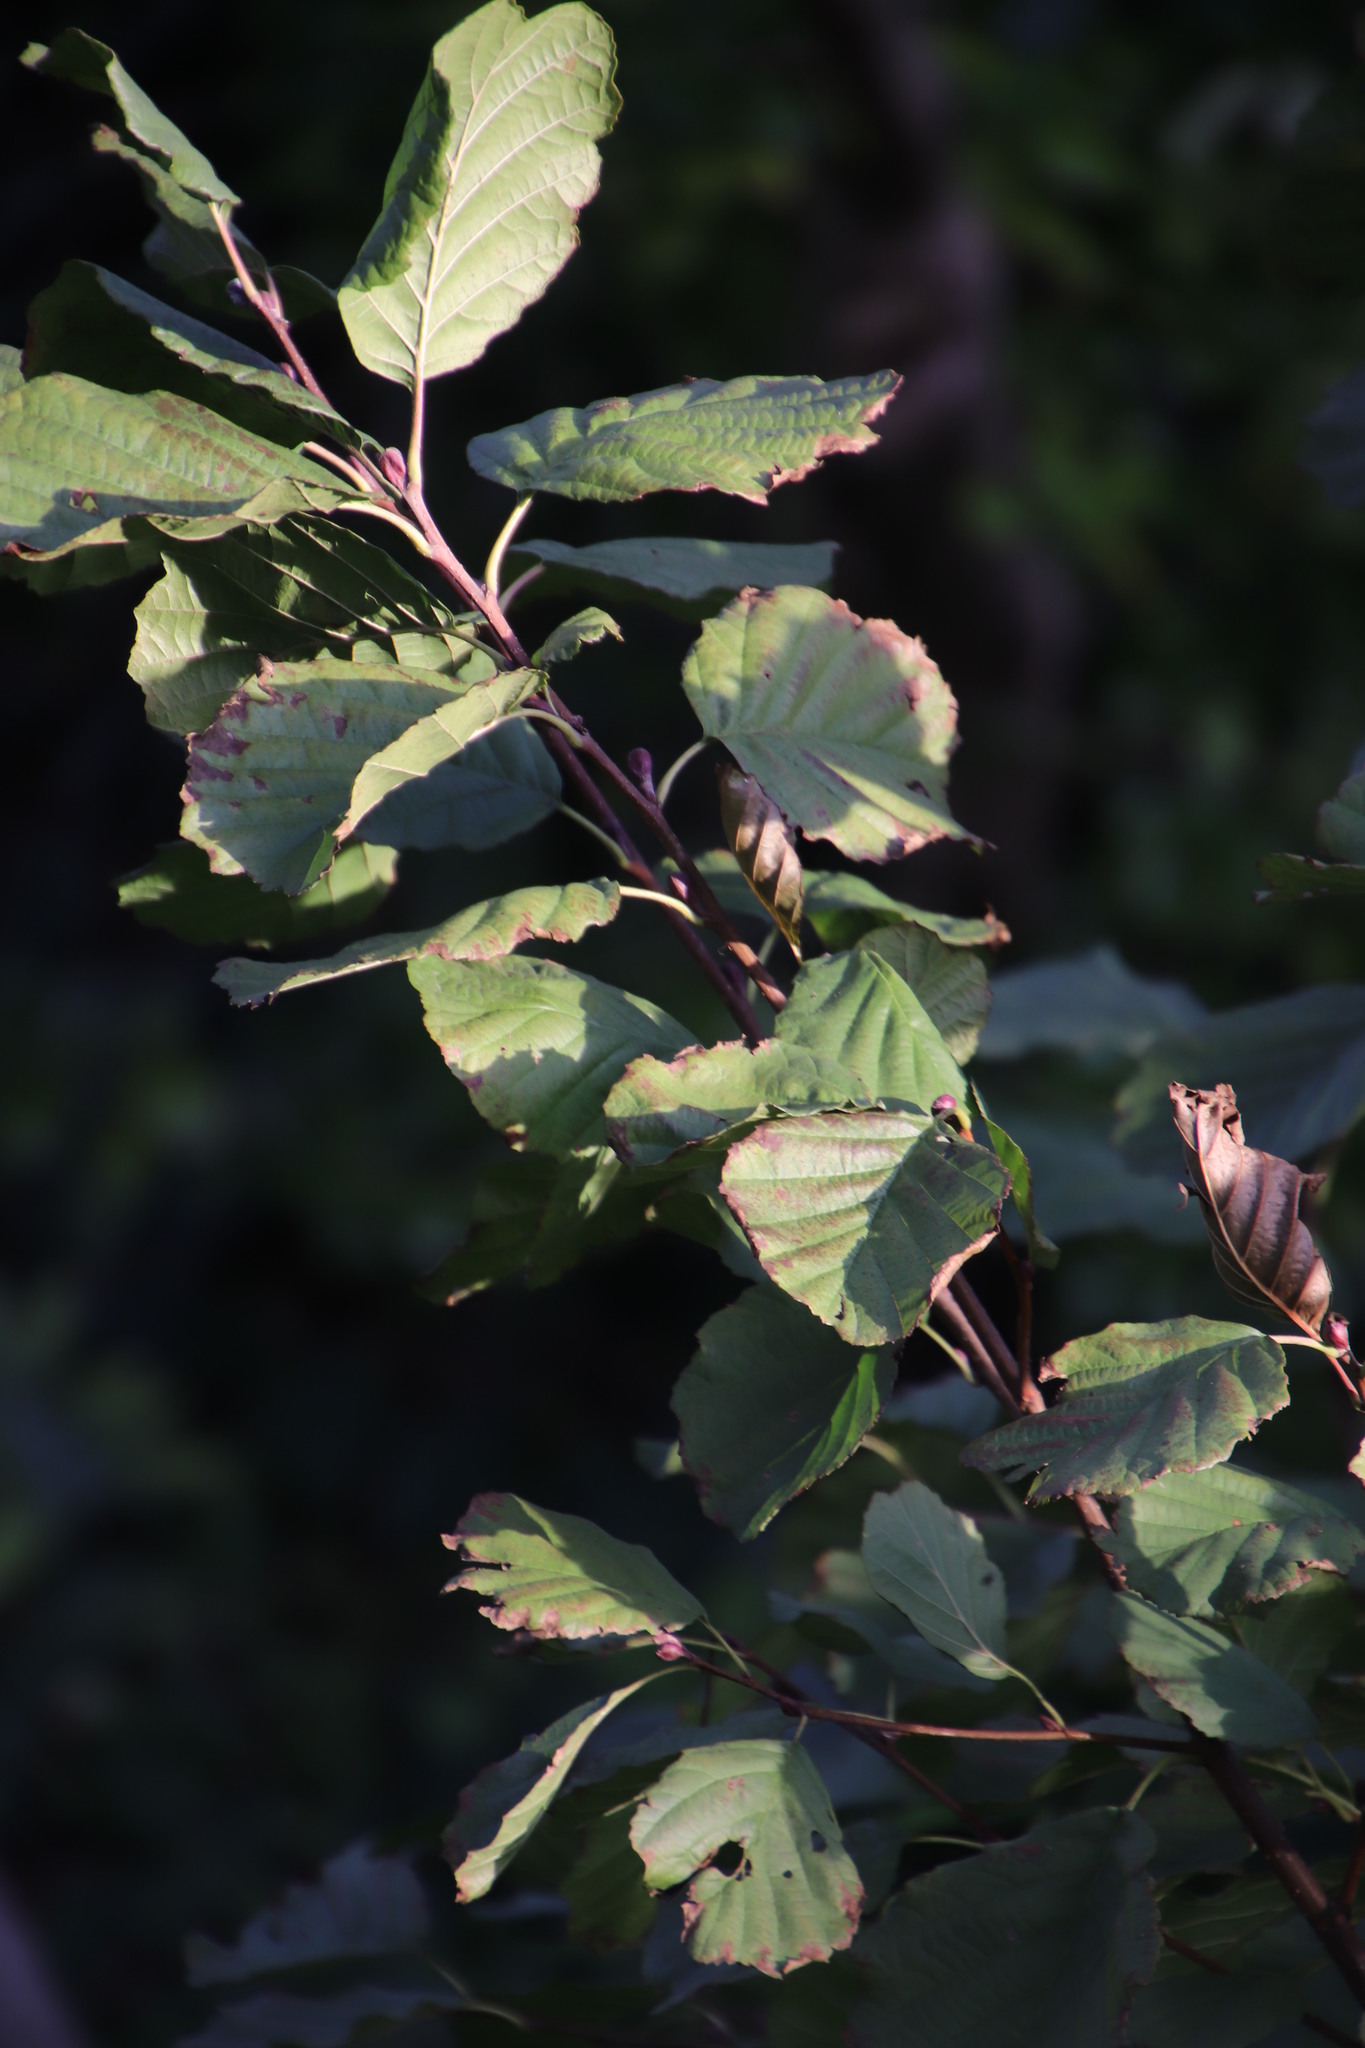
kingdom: Plantae
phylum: Tracheophyta
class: Magnoliopsida
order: Fagales
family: Betulaceae
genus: Alnus
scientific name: Alnus glutinosa
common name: Black alder
